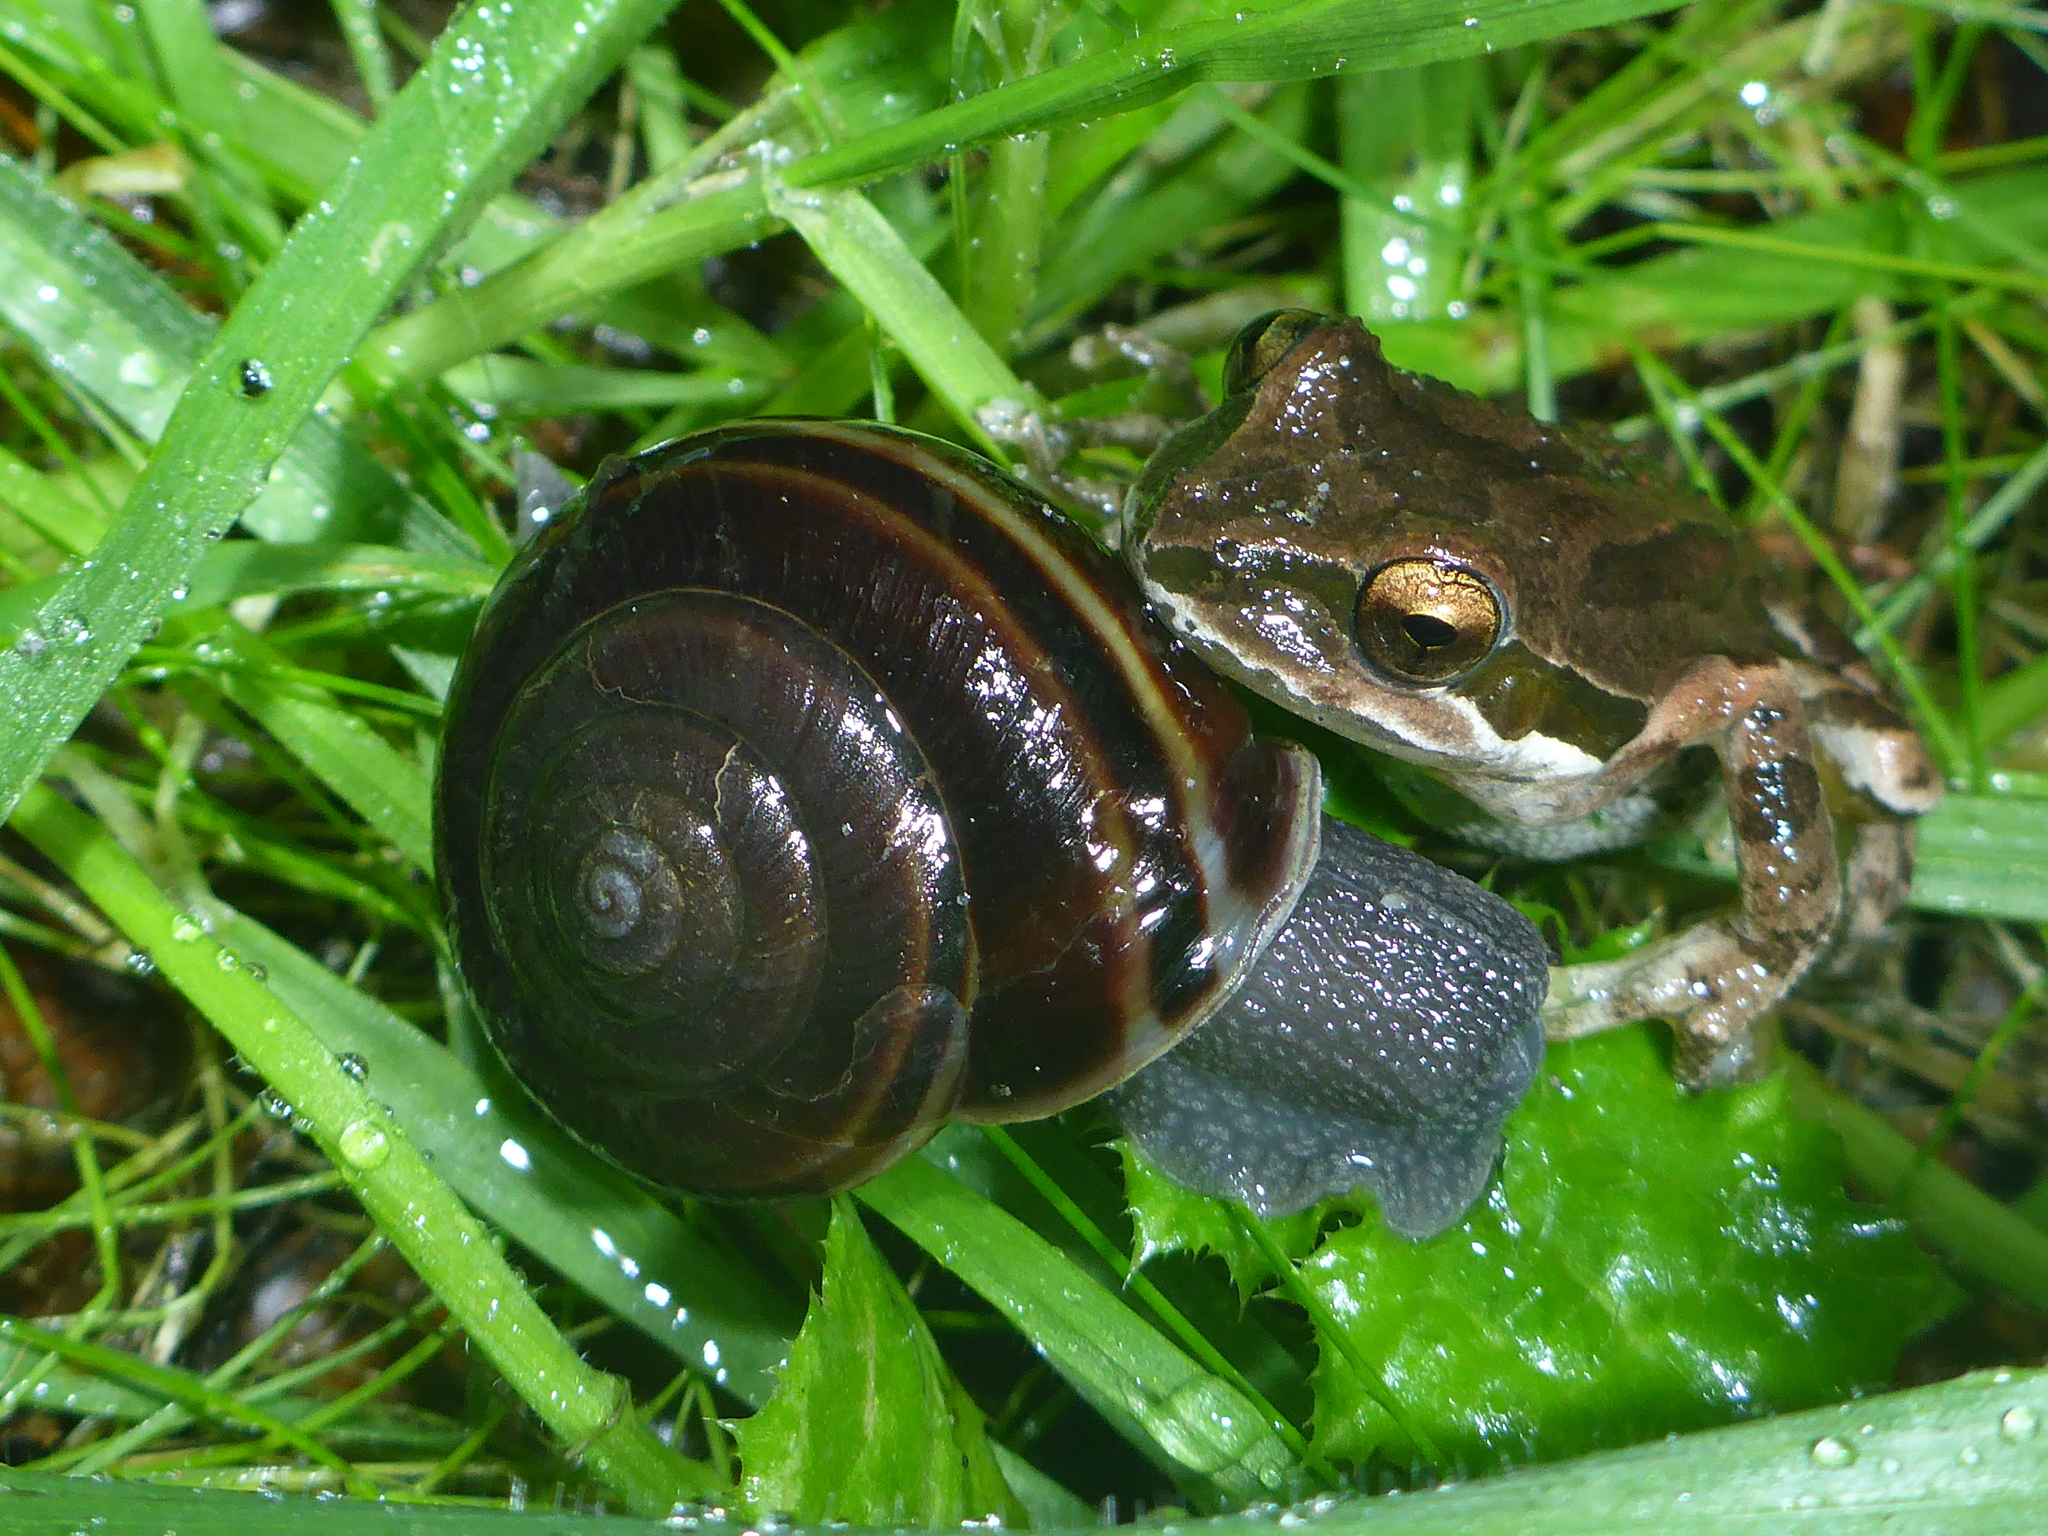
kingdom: Animalia
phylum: Mollusca
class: Gastropoda
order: Stylommatophora
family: Xanthonychidae
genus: Helminthoglypta
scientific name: Helminthoglypta sequoicola
